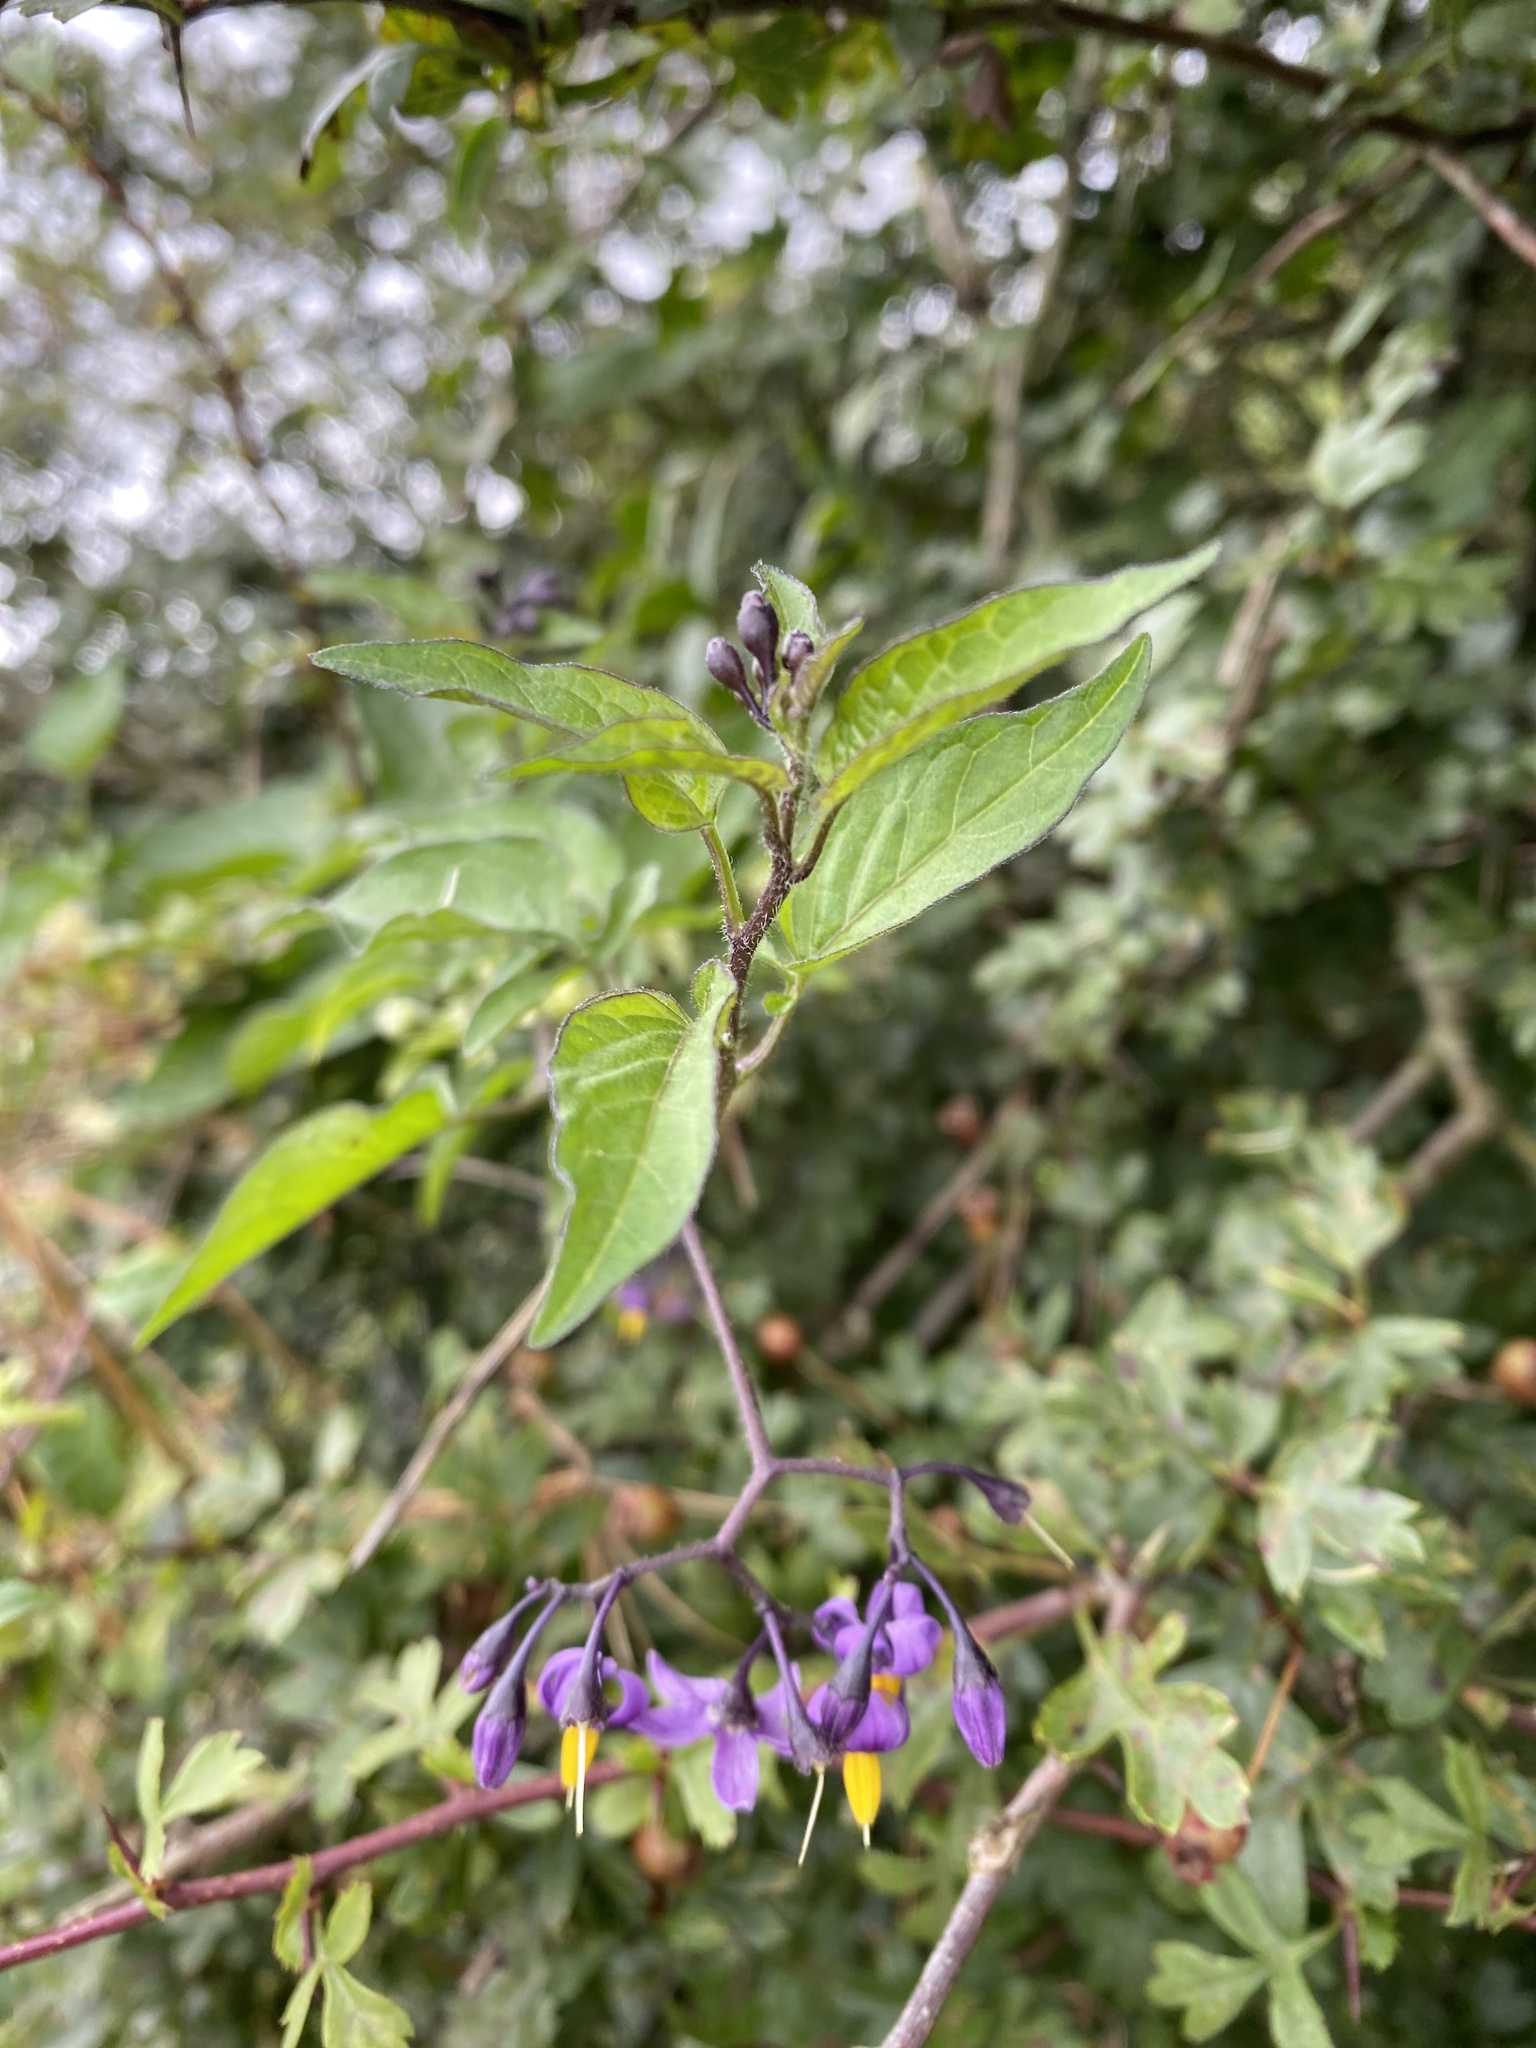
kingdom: Plantae
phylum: Tracheophyta
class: Magnoliopsida
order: Solanales
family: Solanaceae
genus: Solanum
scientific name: Solanum dulcamara
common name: Climbing nightshade
